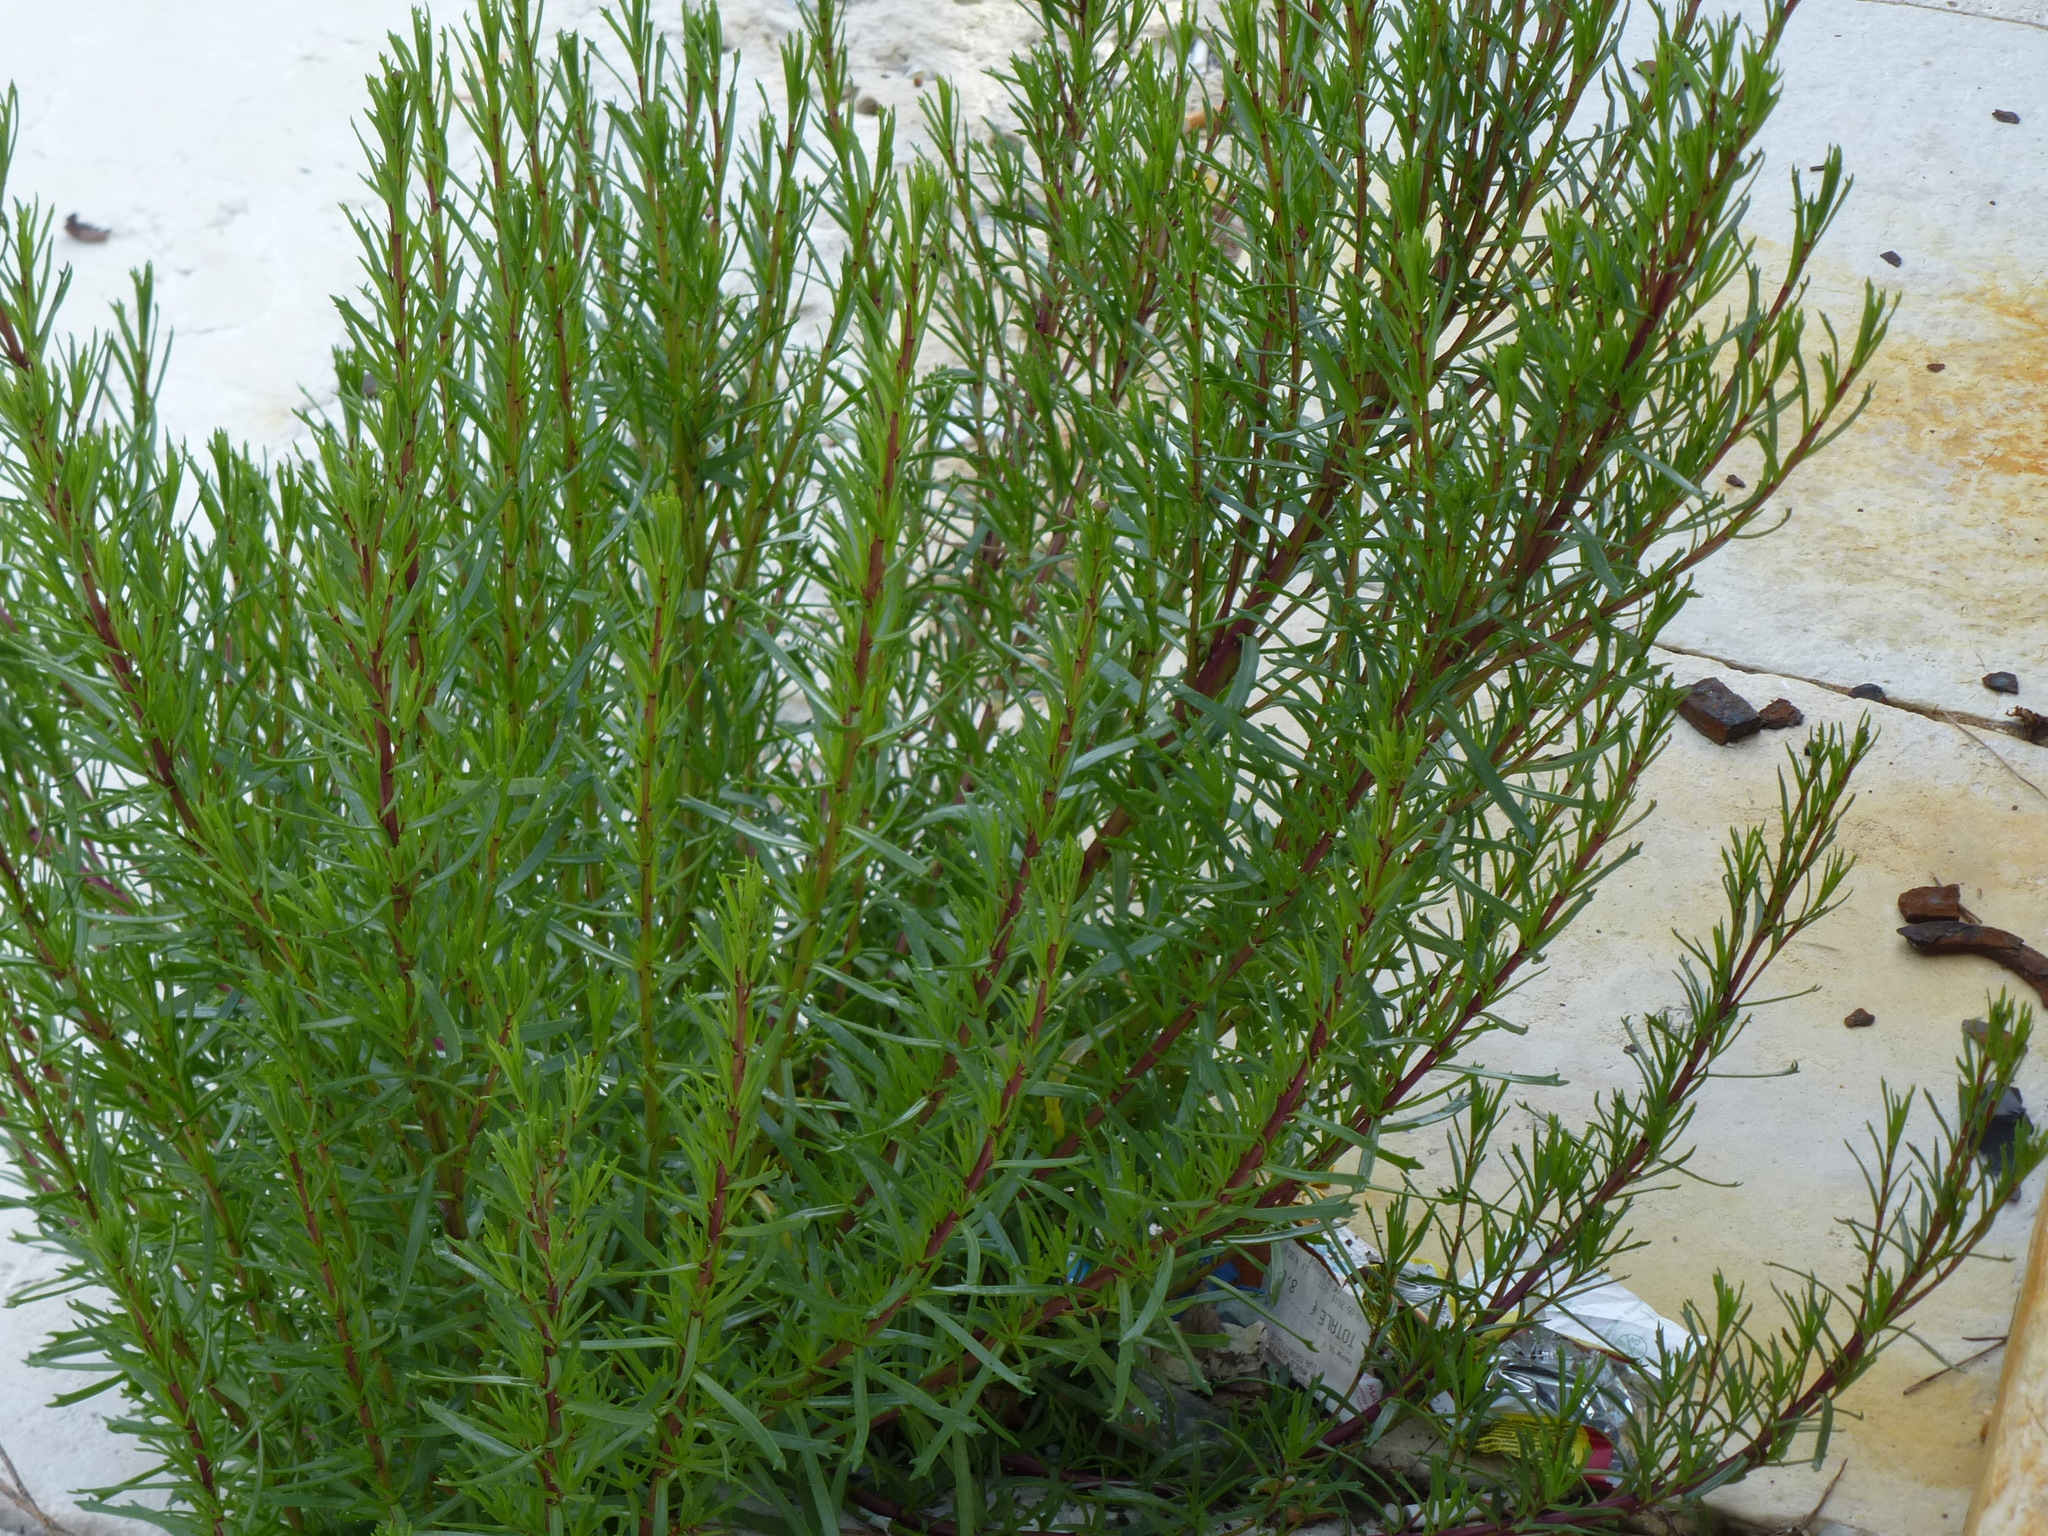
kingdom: Plantae
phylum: Tracheophyta
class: Magnoliopsida
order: Asterales
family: Asteraceae
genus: Limbarda
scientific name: Limbarda crithmoides
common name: Golden samphire
